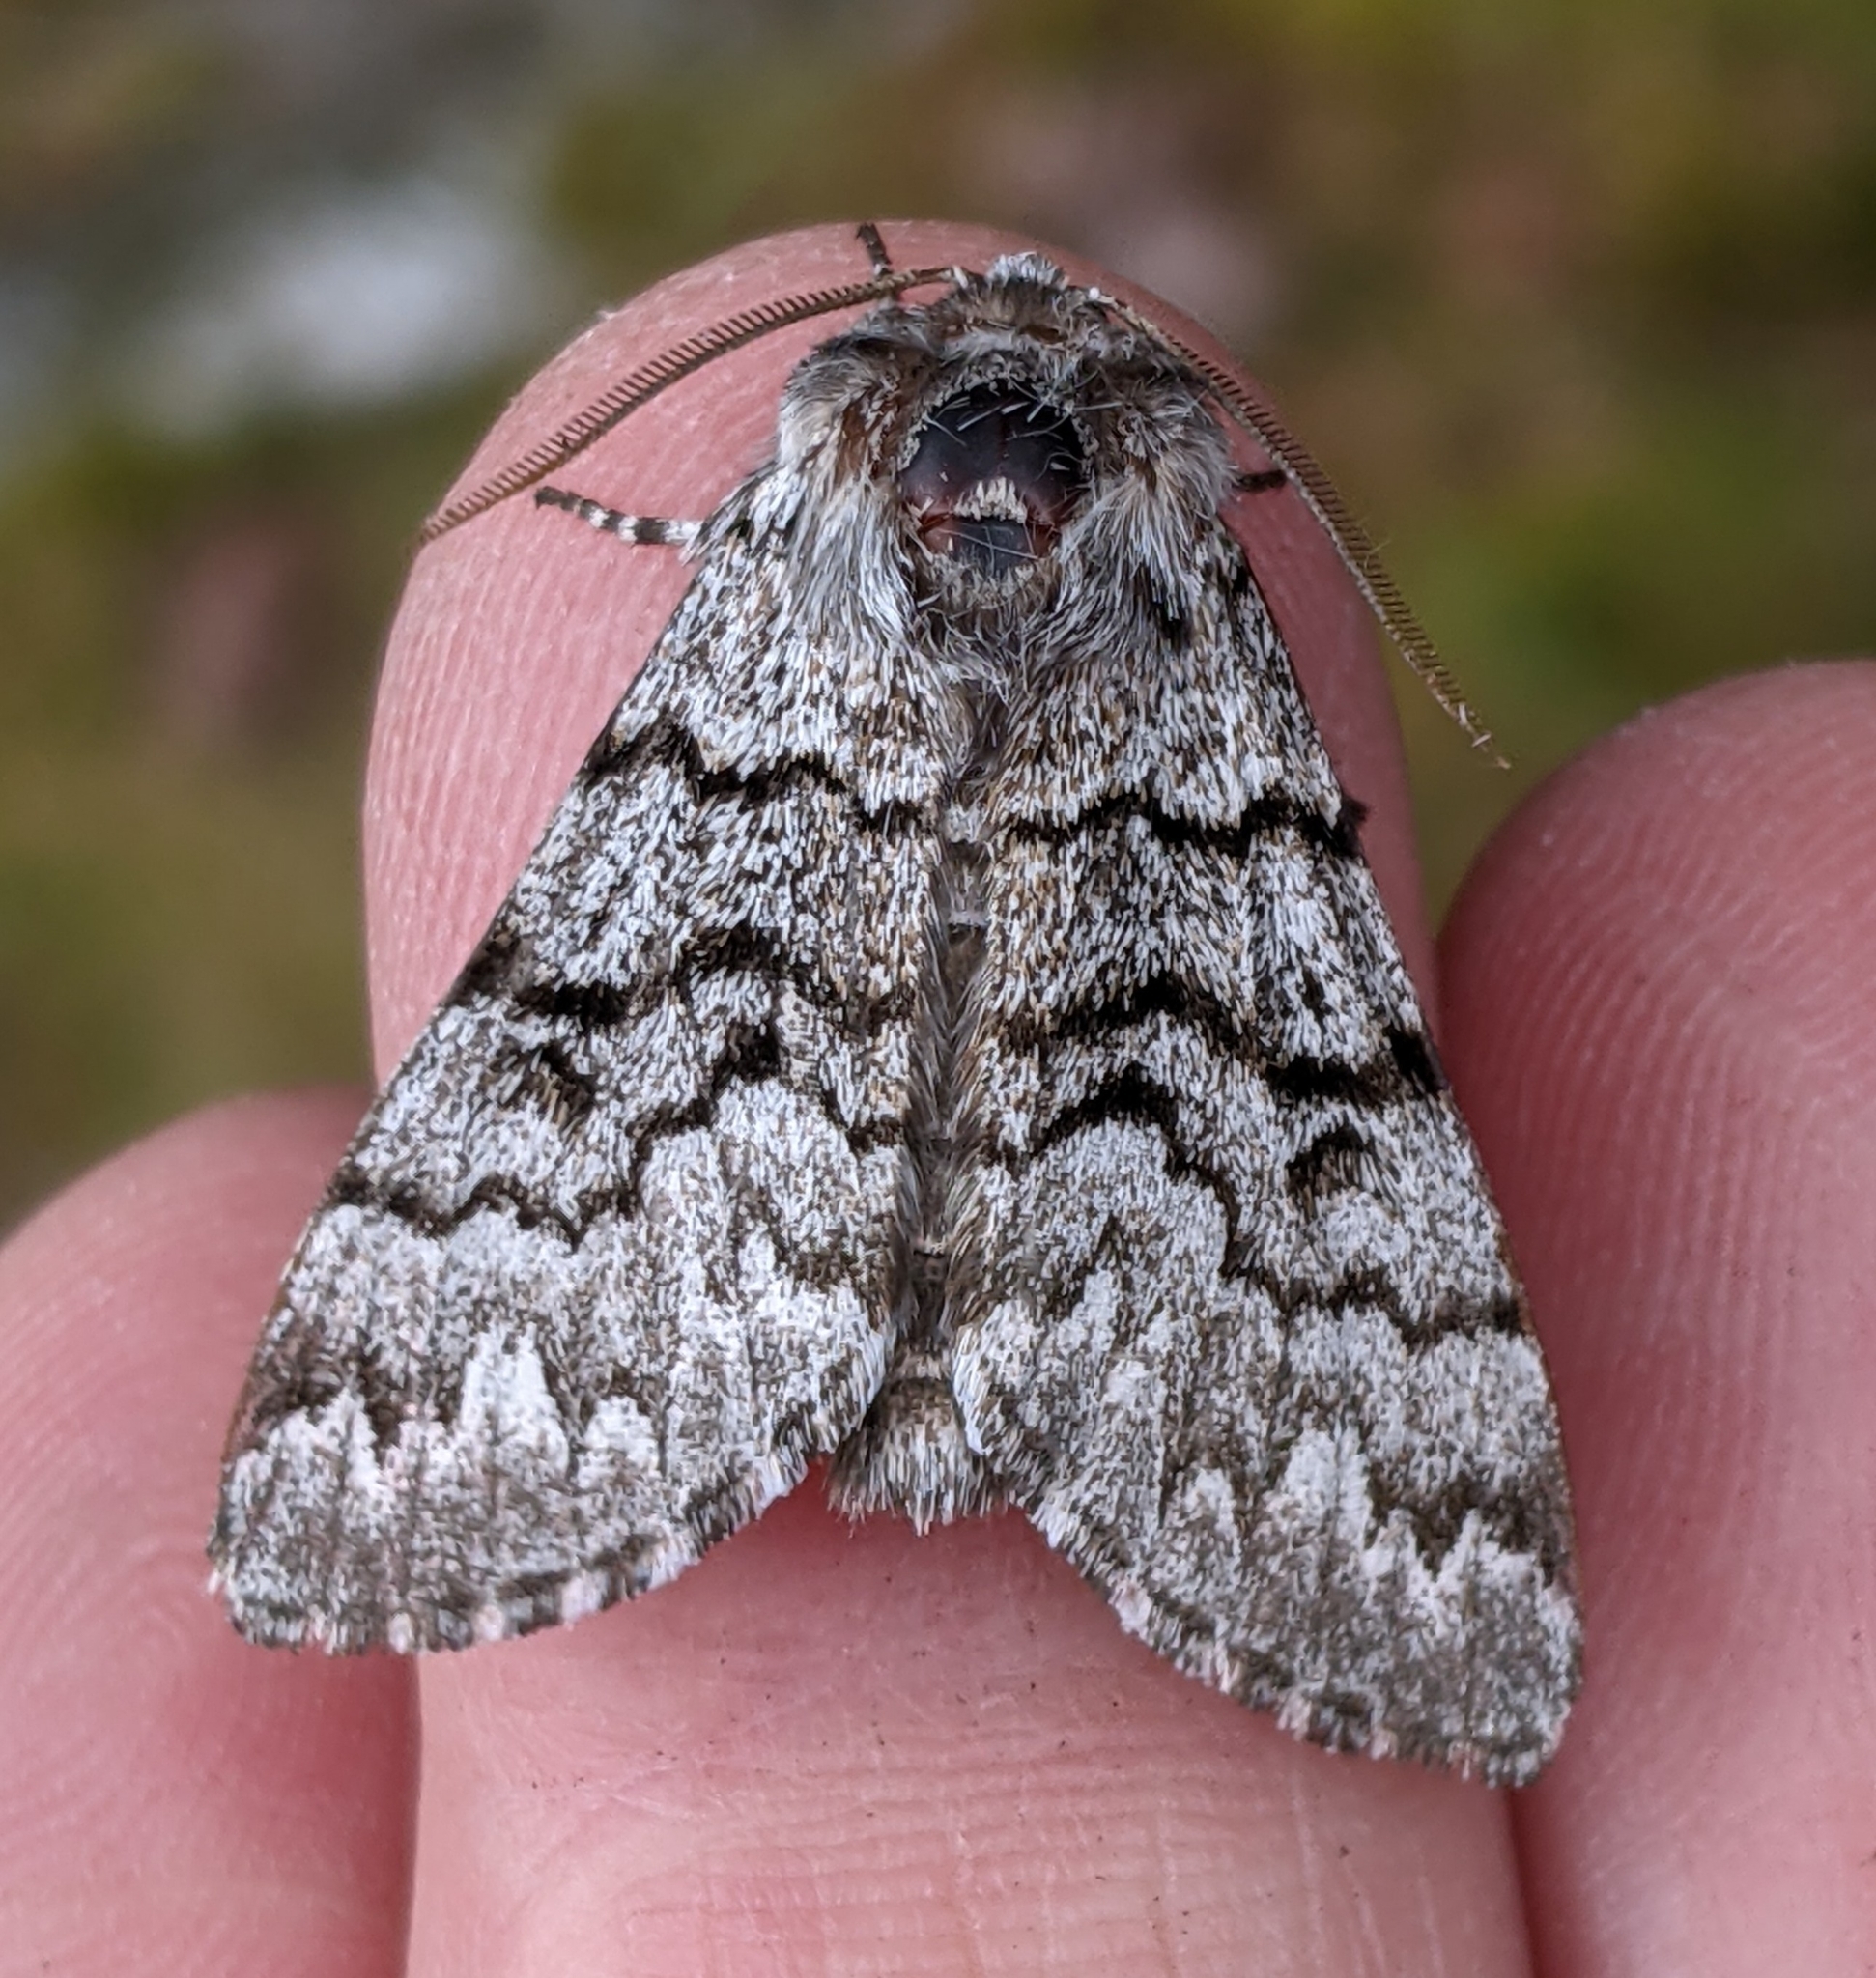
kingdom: Animalia
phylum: Arthropoda
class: Insecta
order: Lepidoptera
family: Noctuidae
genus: Panthea
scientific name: Panthea virginarius
